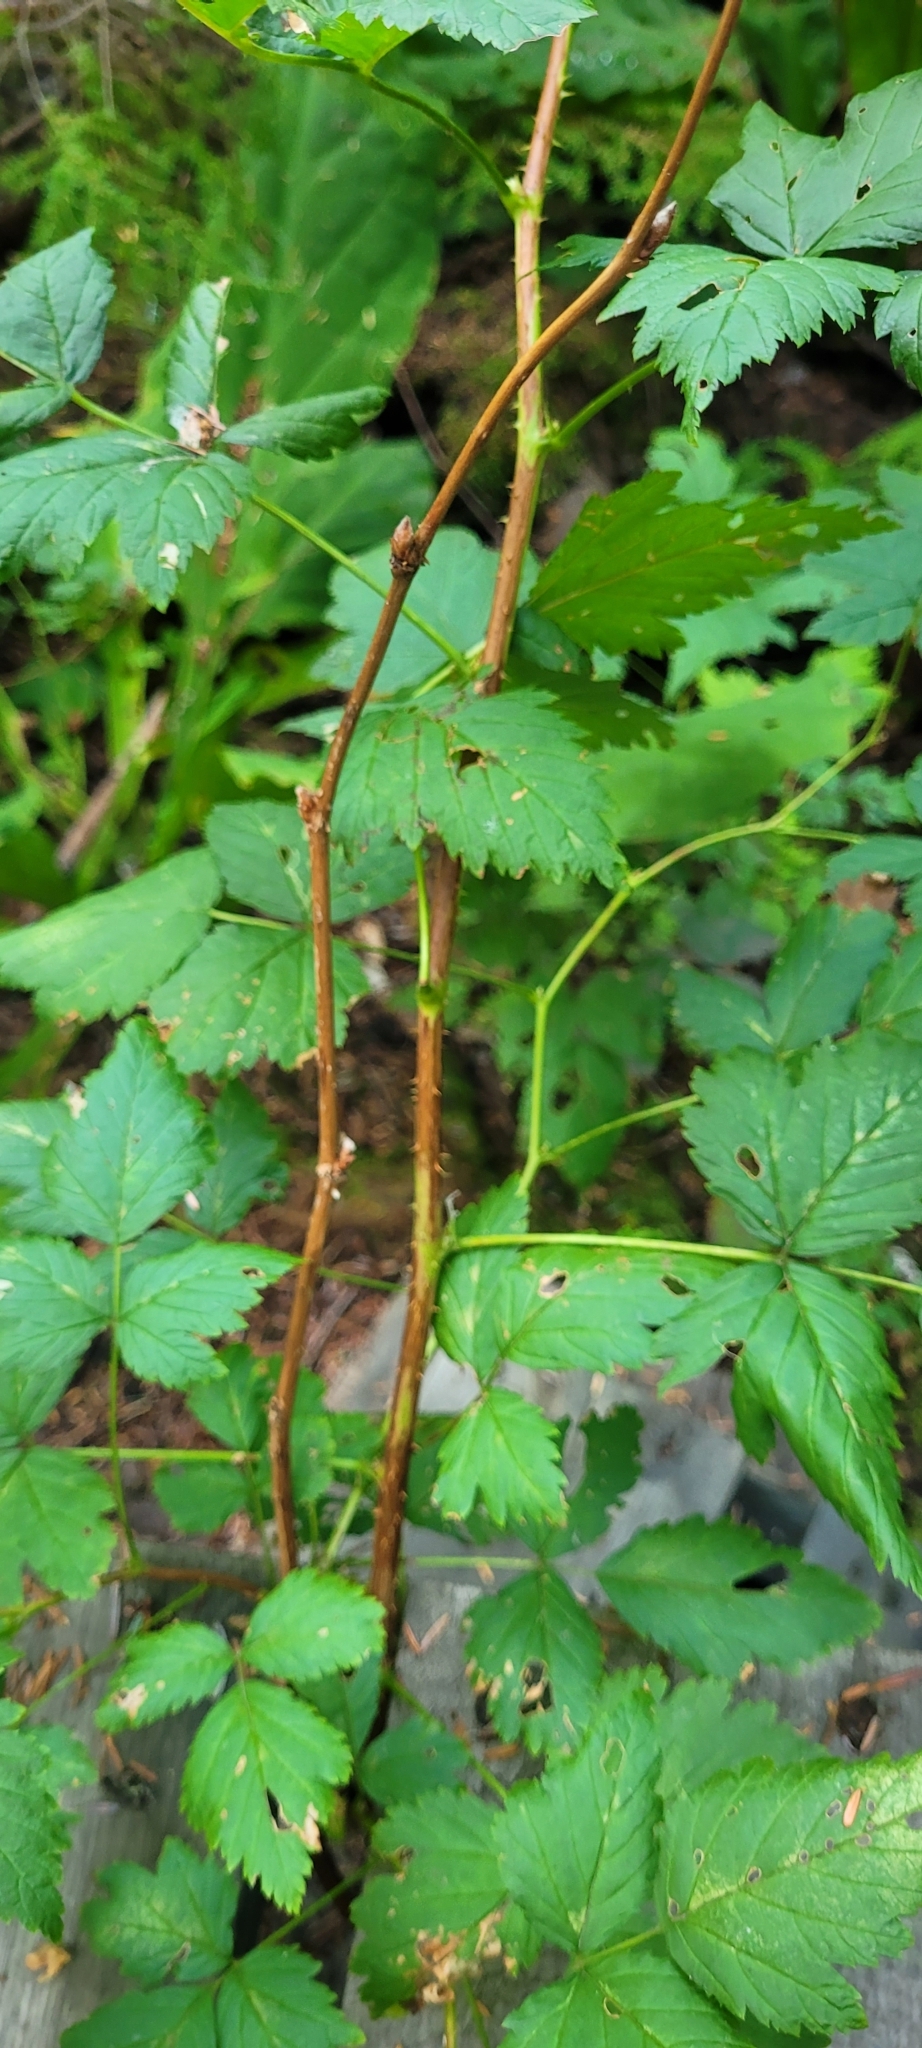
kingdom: Plantae
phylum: Tracheophyta
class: Magnoliopsida
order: Rosales
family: Rosaceae
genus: Rubus
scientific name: Rubus spectabilis
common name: Salmonberry
